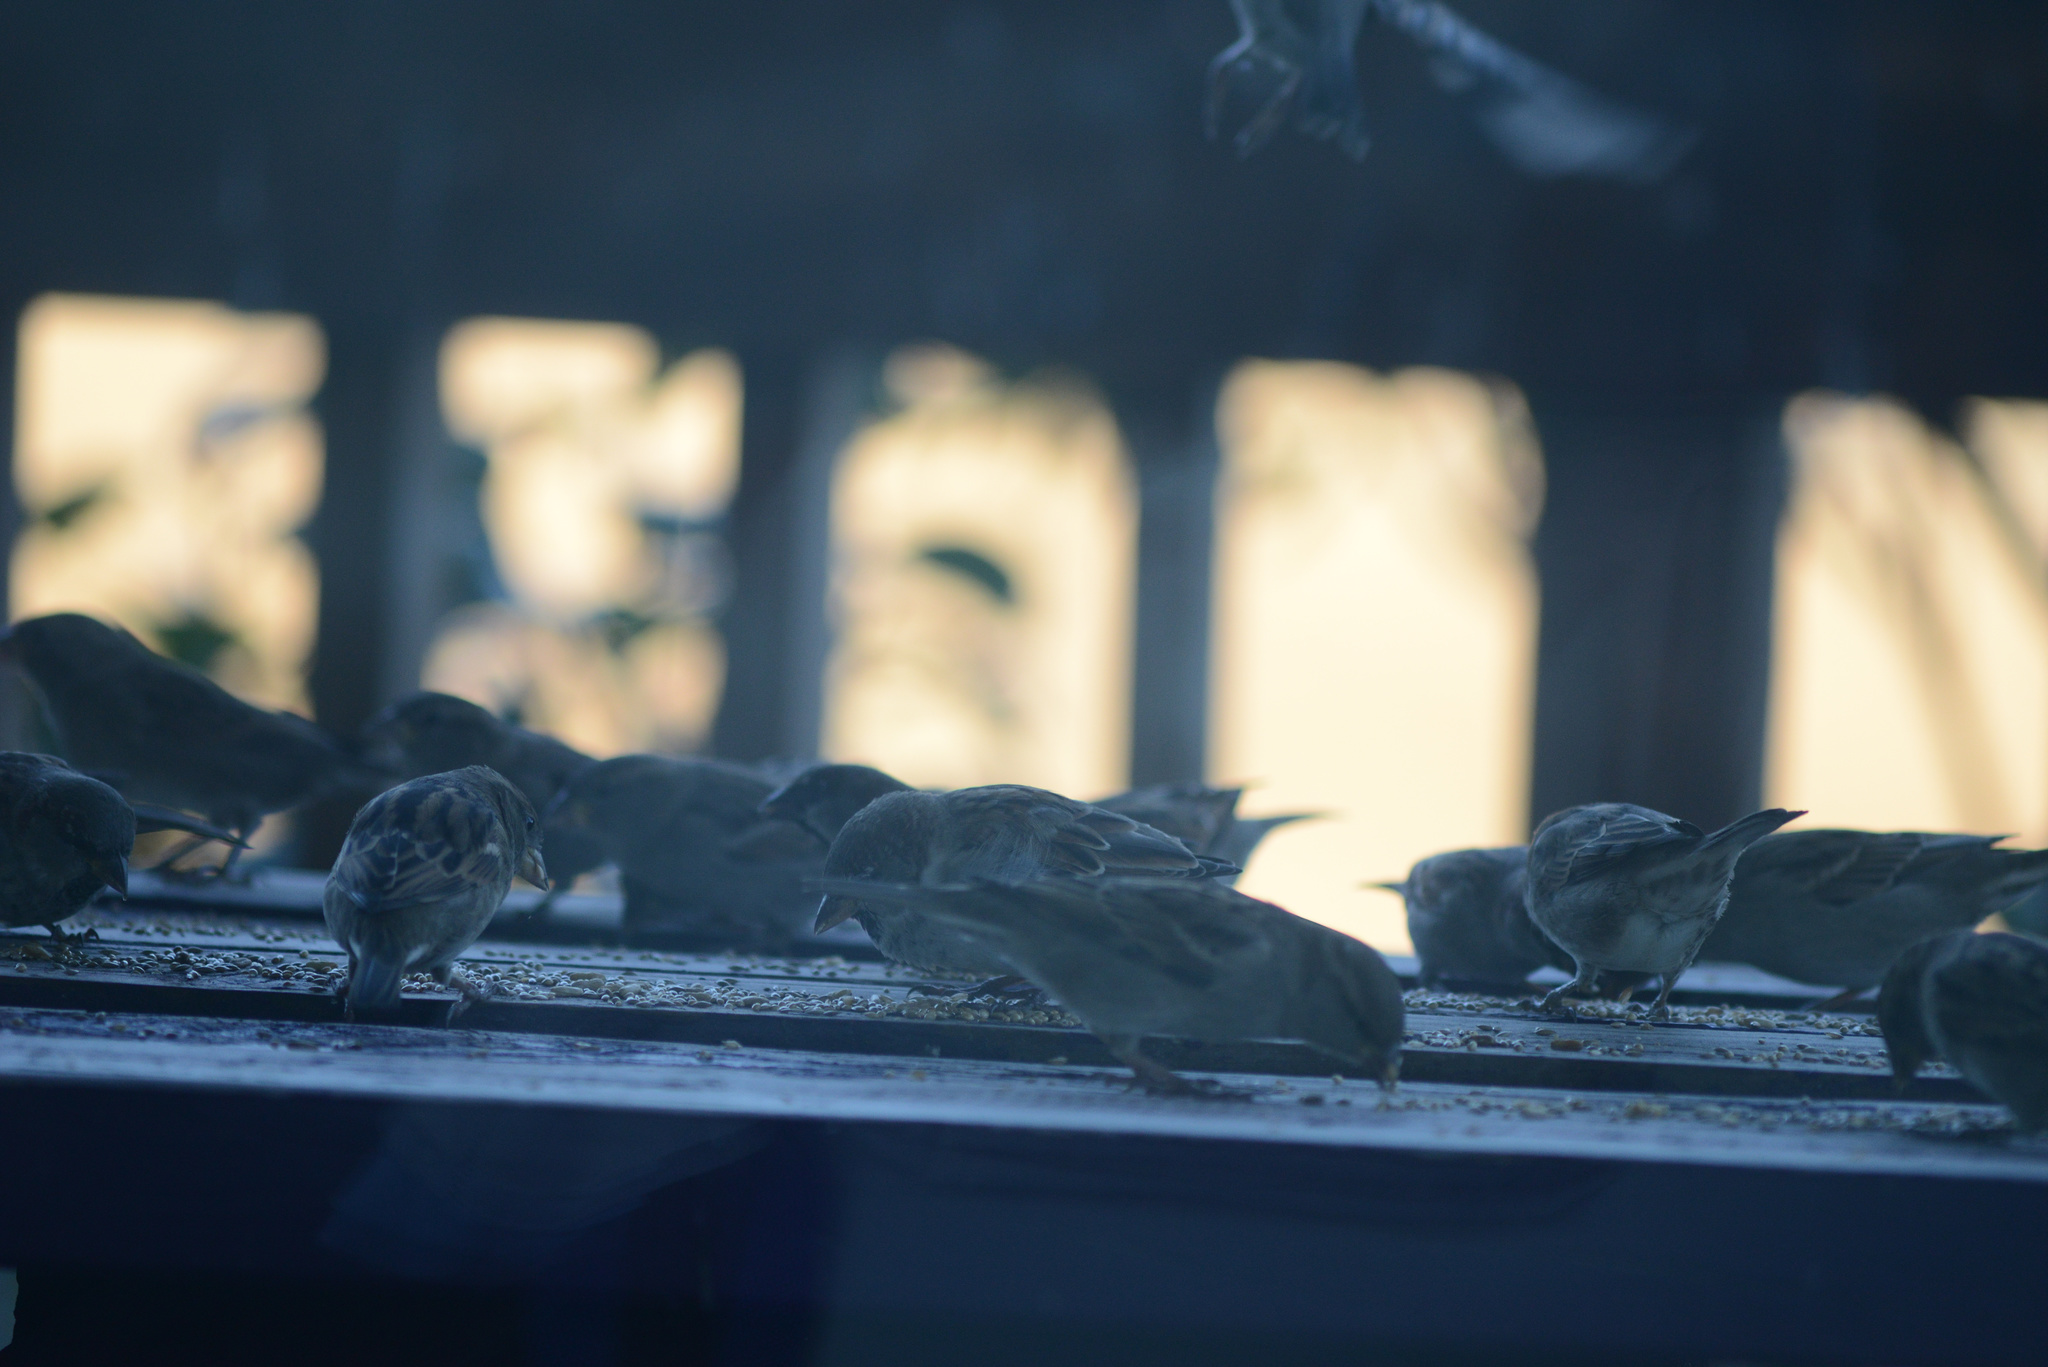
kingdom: Animalia
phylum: Chordata
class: Aves
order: Passeriformes
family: Passeridae
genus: Passer
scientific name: Passer domesticus
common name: House sparrow
